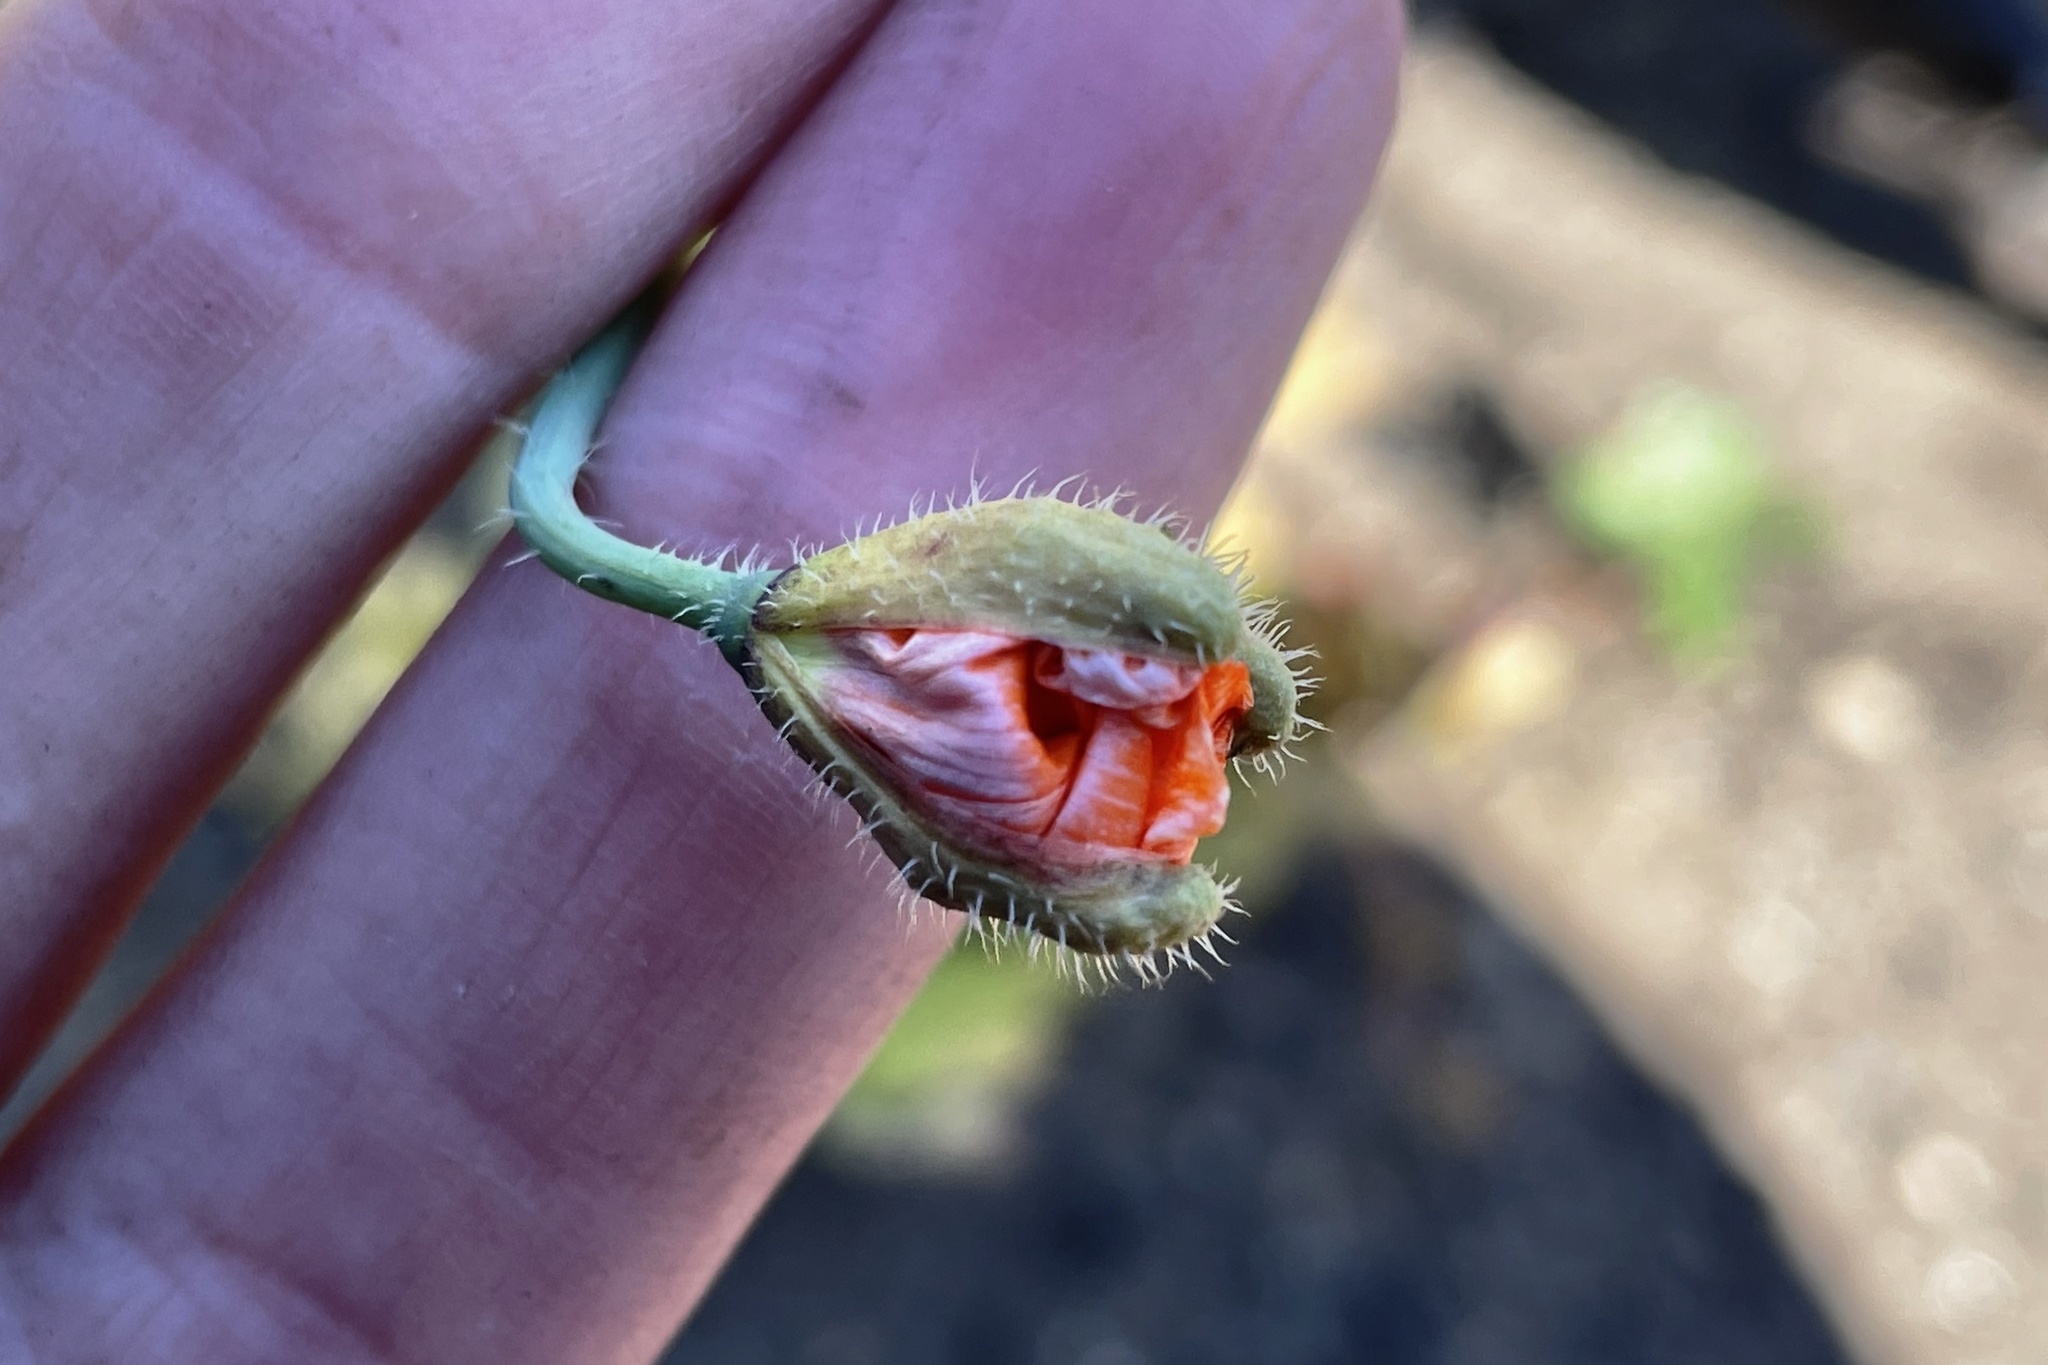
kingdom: Plantae
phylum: Tracheophyta
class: Magnoliopsida
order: Ranunculales
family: Papaveraceae
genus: Papaver
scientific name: Papaver californicum
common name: Fire poppy
